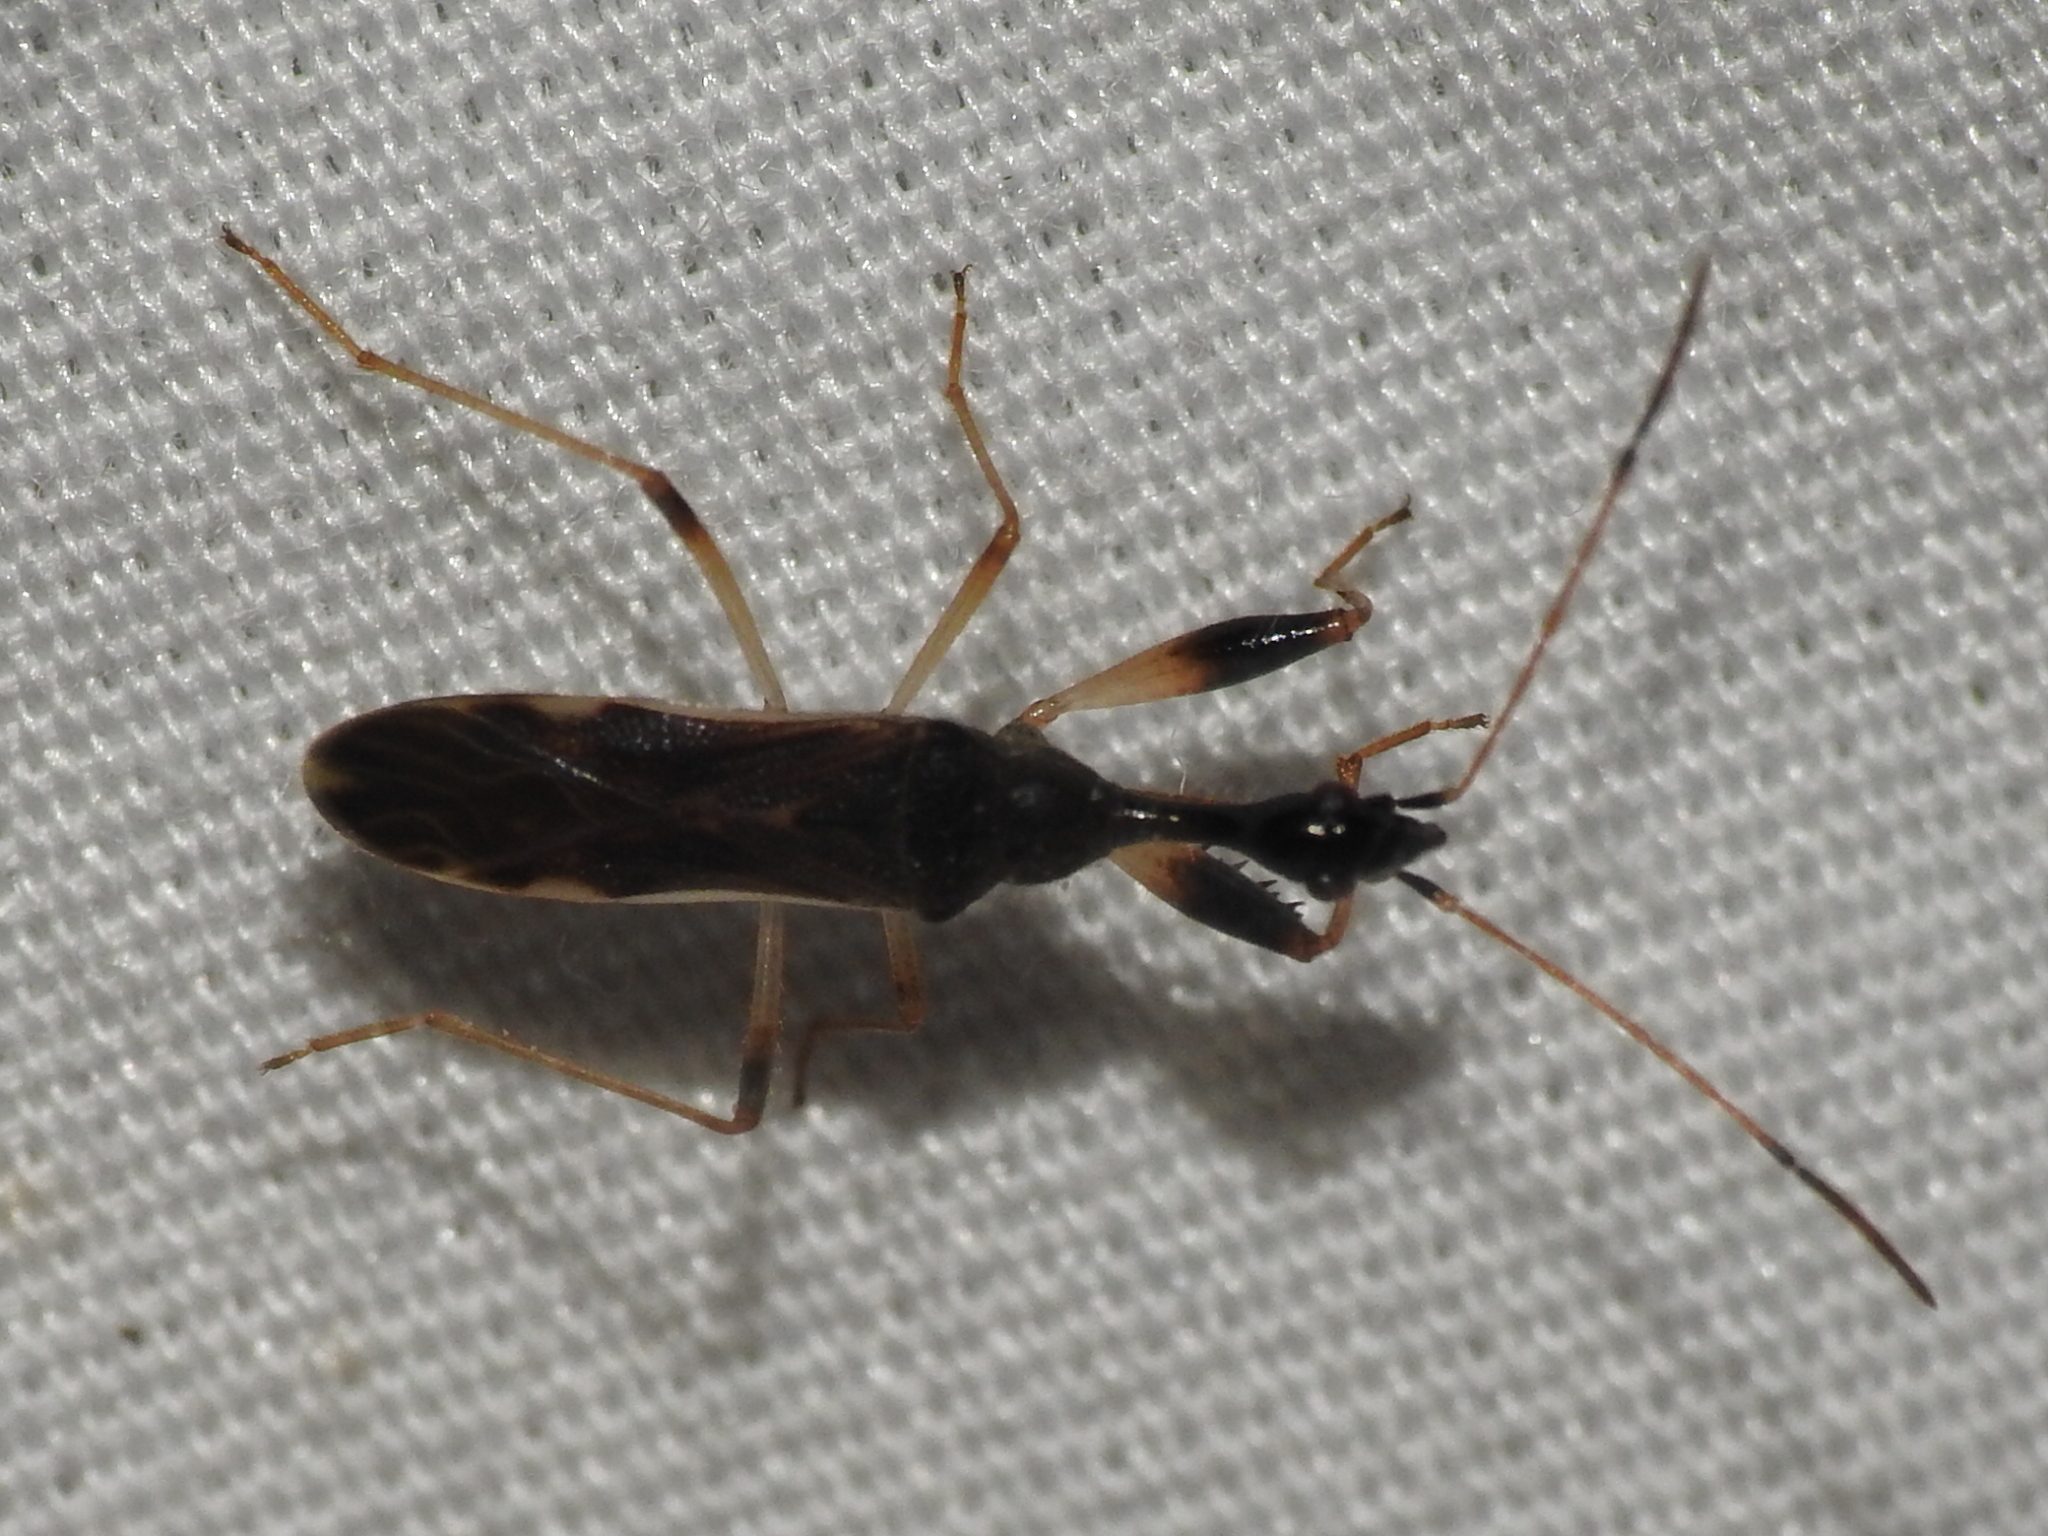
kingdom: Animalia
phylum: Arthropoda
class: Insecta
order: Hemiptera
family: Rhyparochromidae
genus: Myodocha
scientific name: Myodocha serripes
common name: Long-necked seed bug
